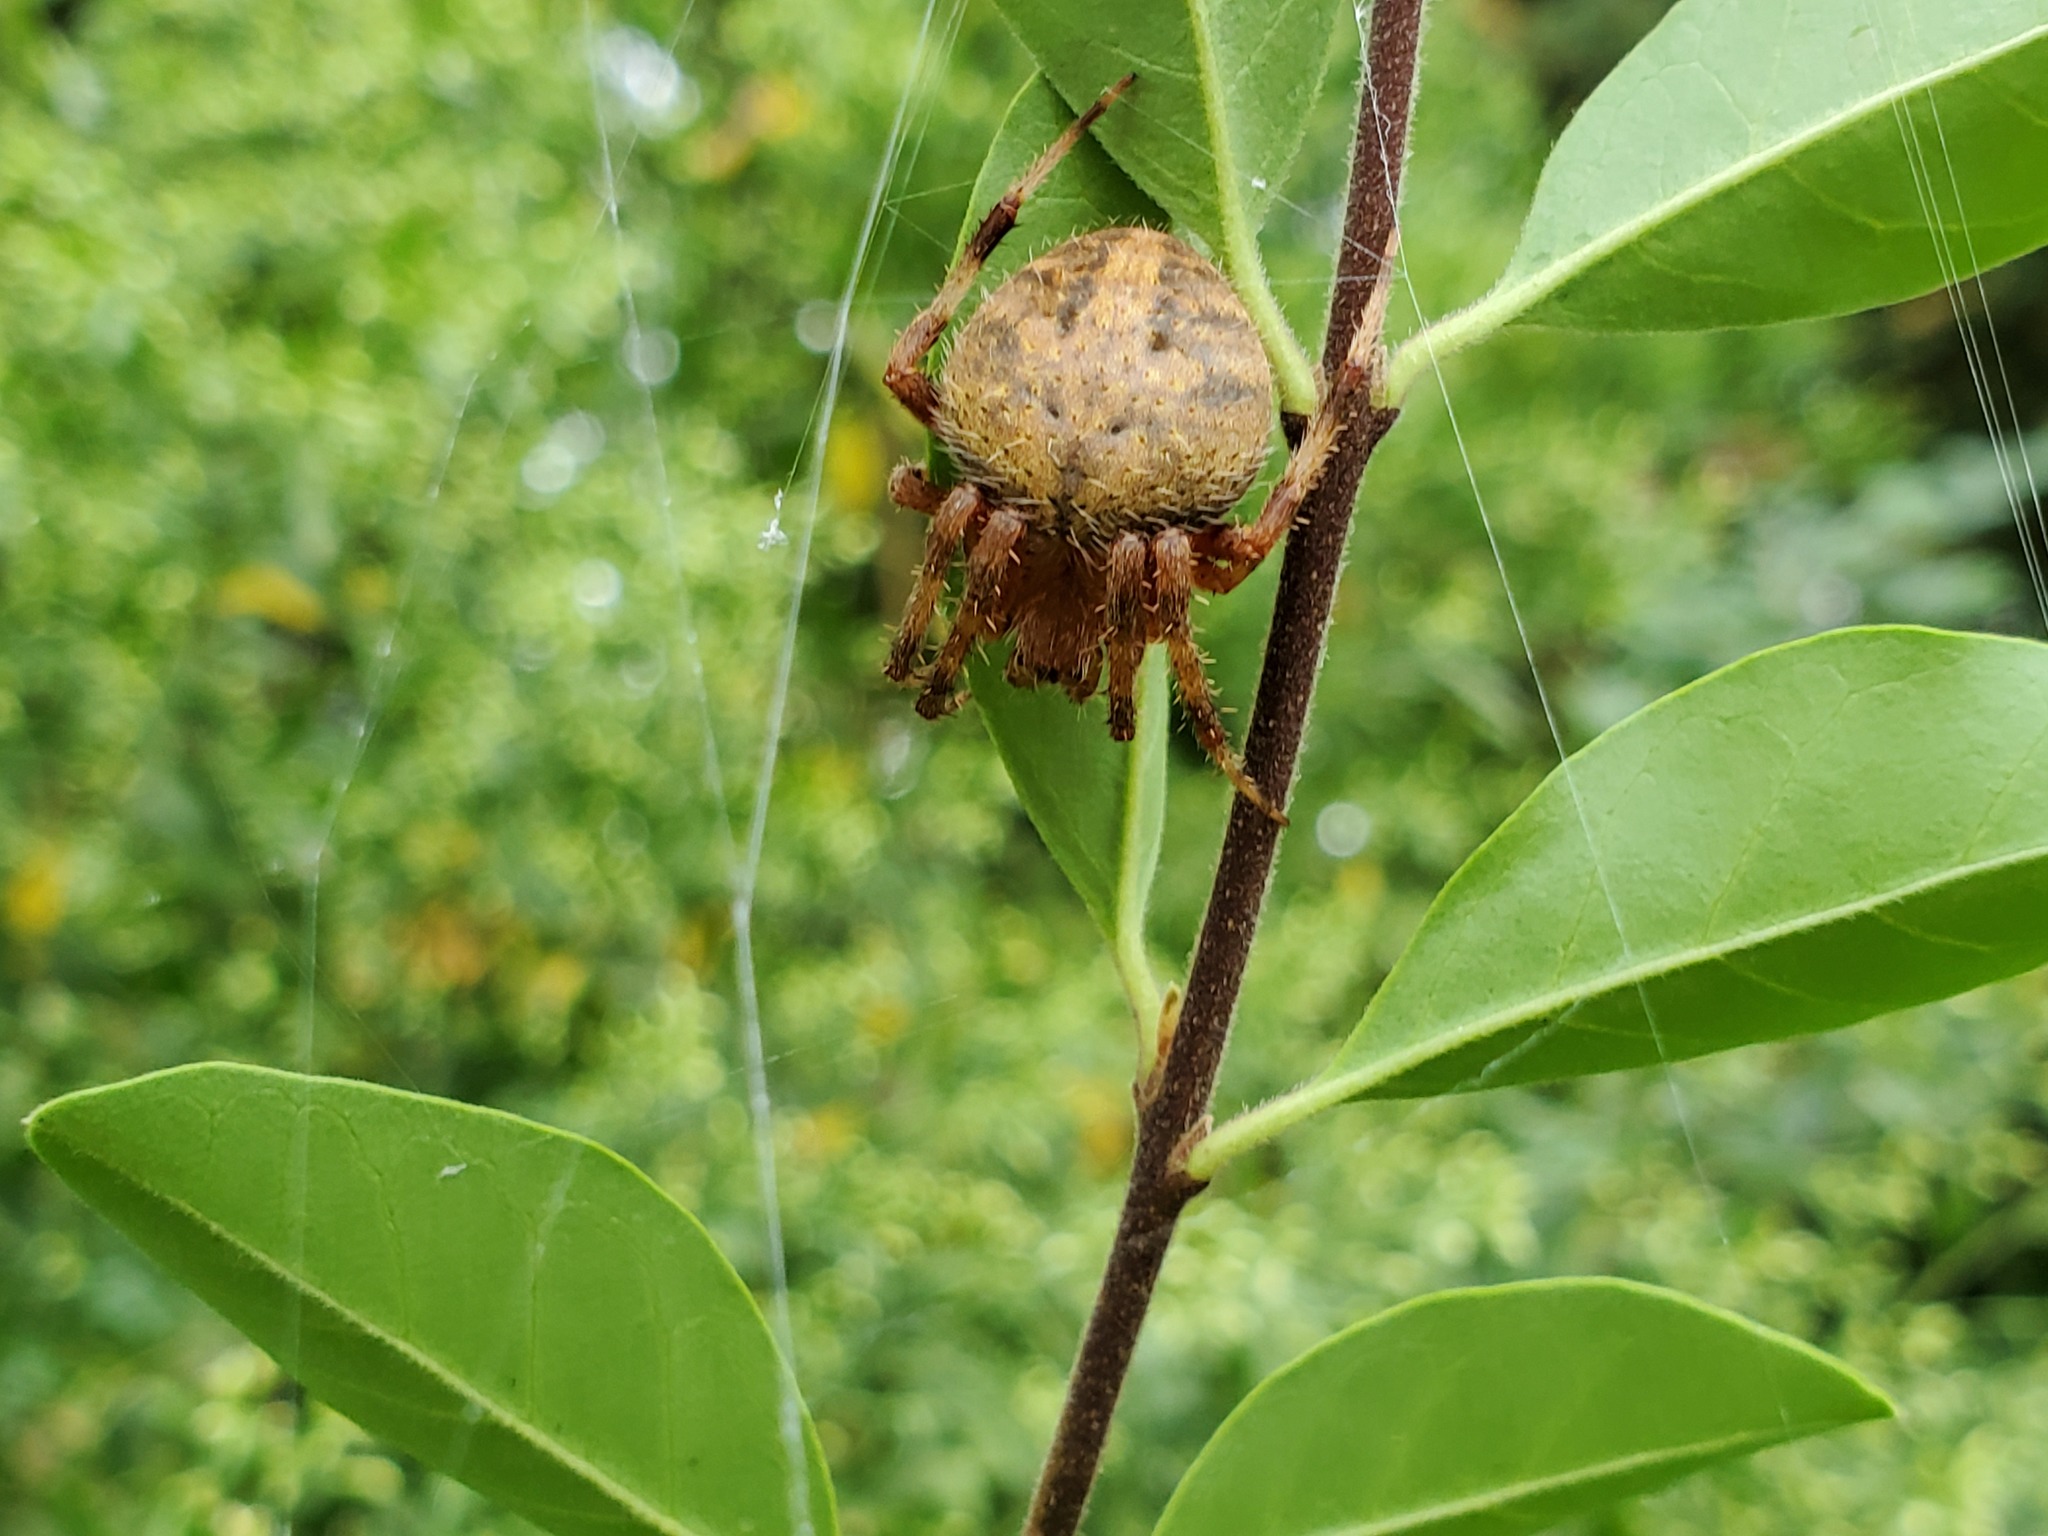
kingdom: Animalia
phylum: Arthropoda
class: Arachnida
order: Araneae
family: Araneidae
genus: Neoscona
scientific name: Neoscona crucifera
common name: Spotted orbweaver
